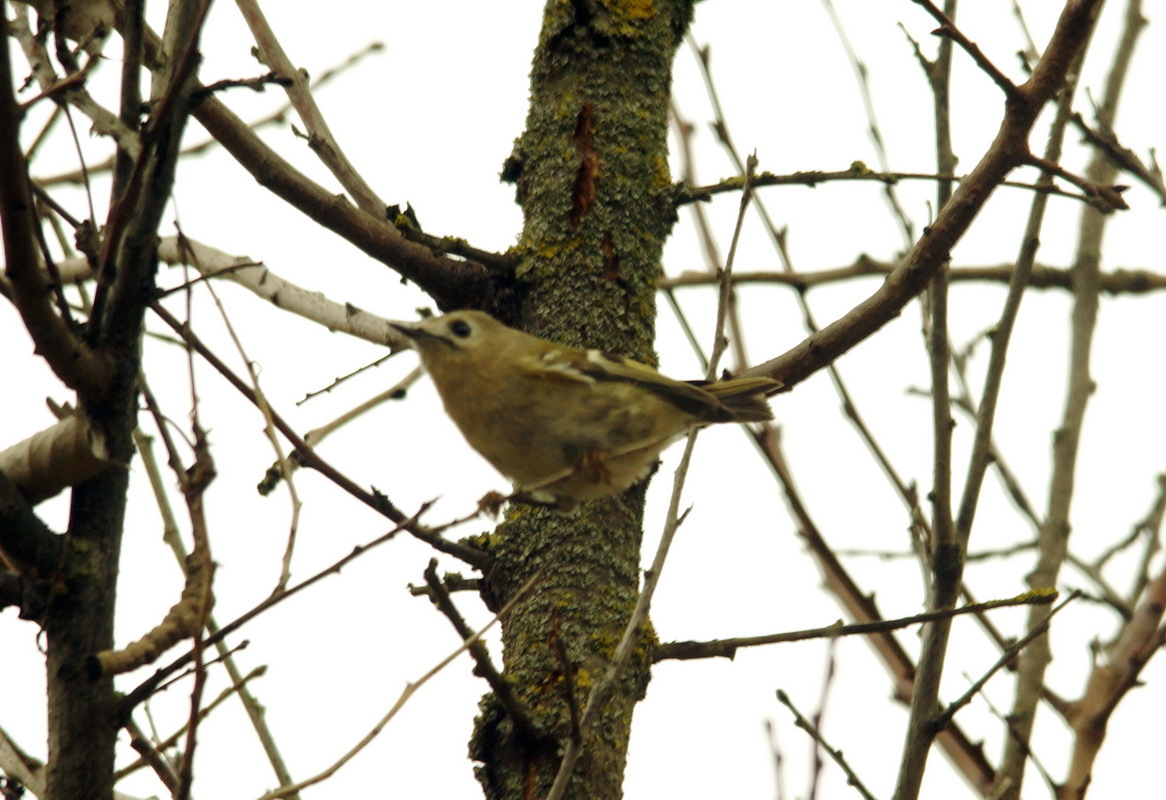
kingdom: Animalia
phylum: Chordata
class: Aves
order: Passeriformes
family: Regulidae
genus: Regulus
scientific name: Regulus regulus
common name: Goldcrest
